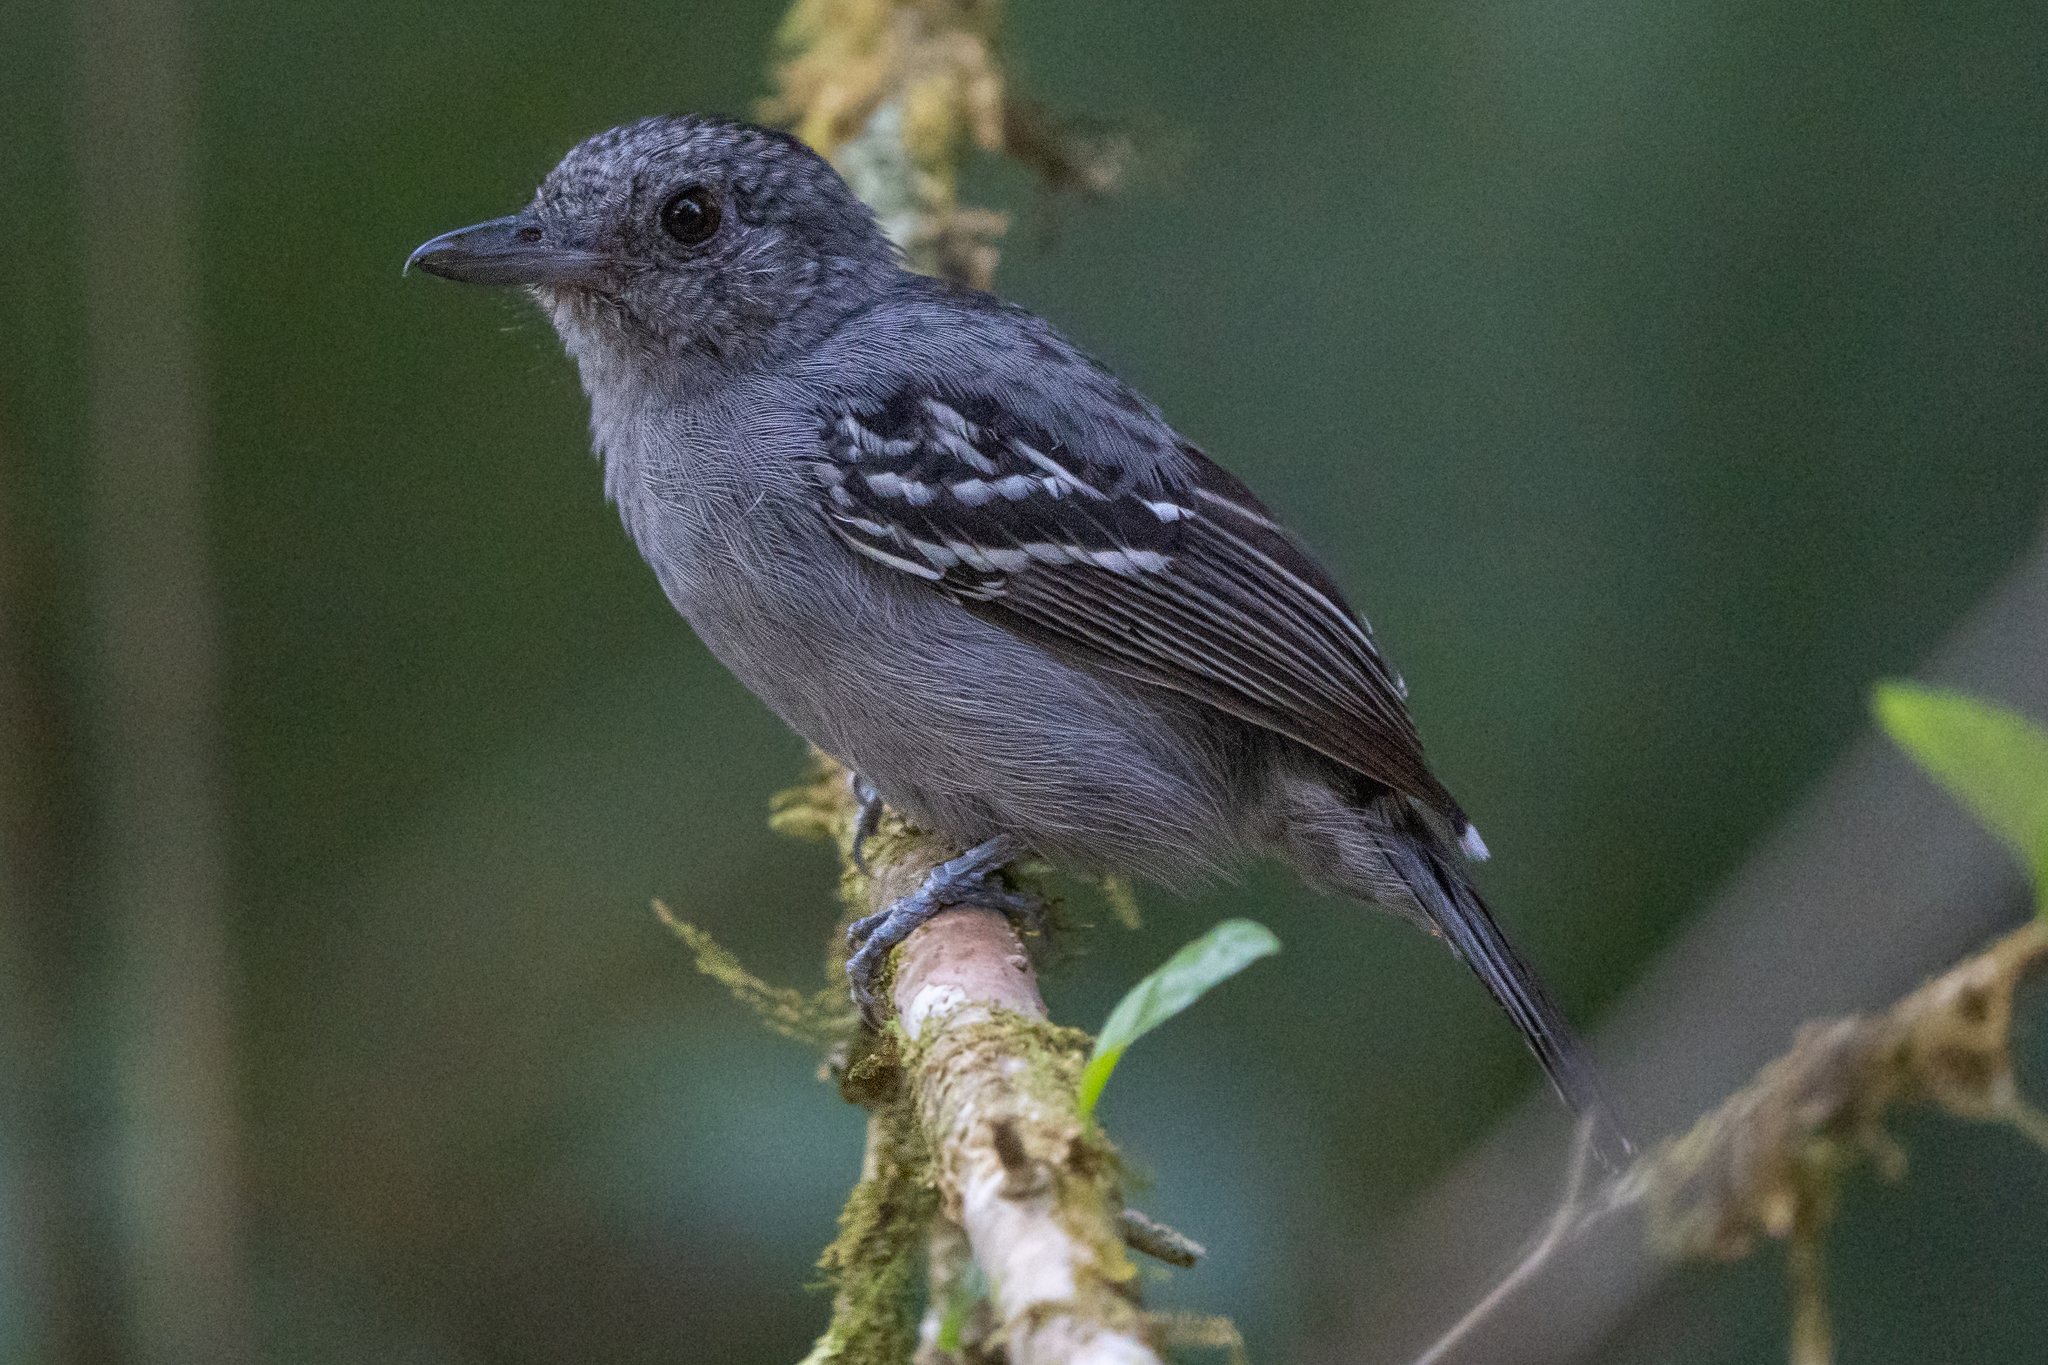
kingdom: Animalia
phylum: Chordata
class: Aves
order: Passeriformes
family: Thamnophilidae
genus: Thamnophilus
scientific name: Thamnophilus atrinucha
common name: Black-crowned antshrike
